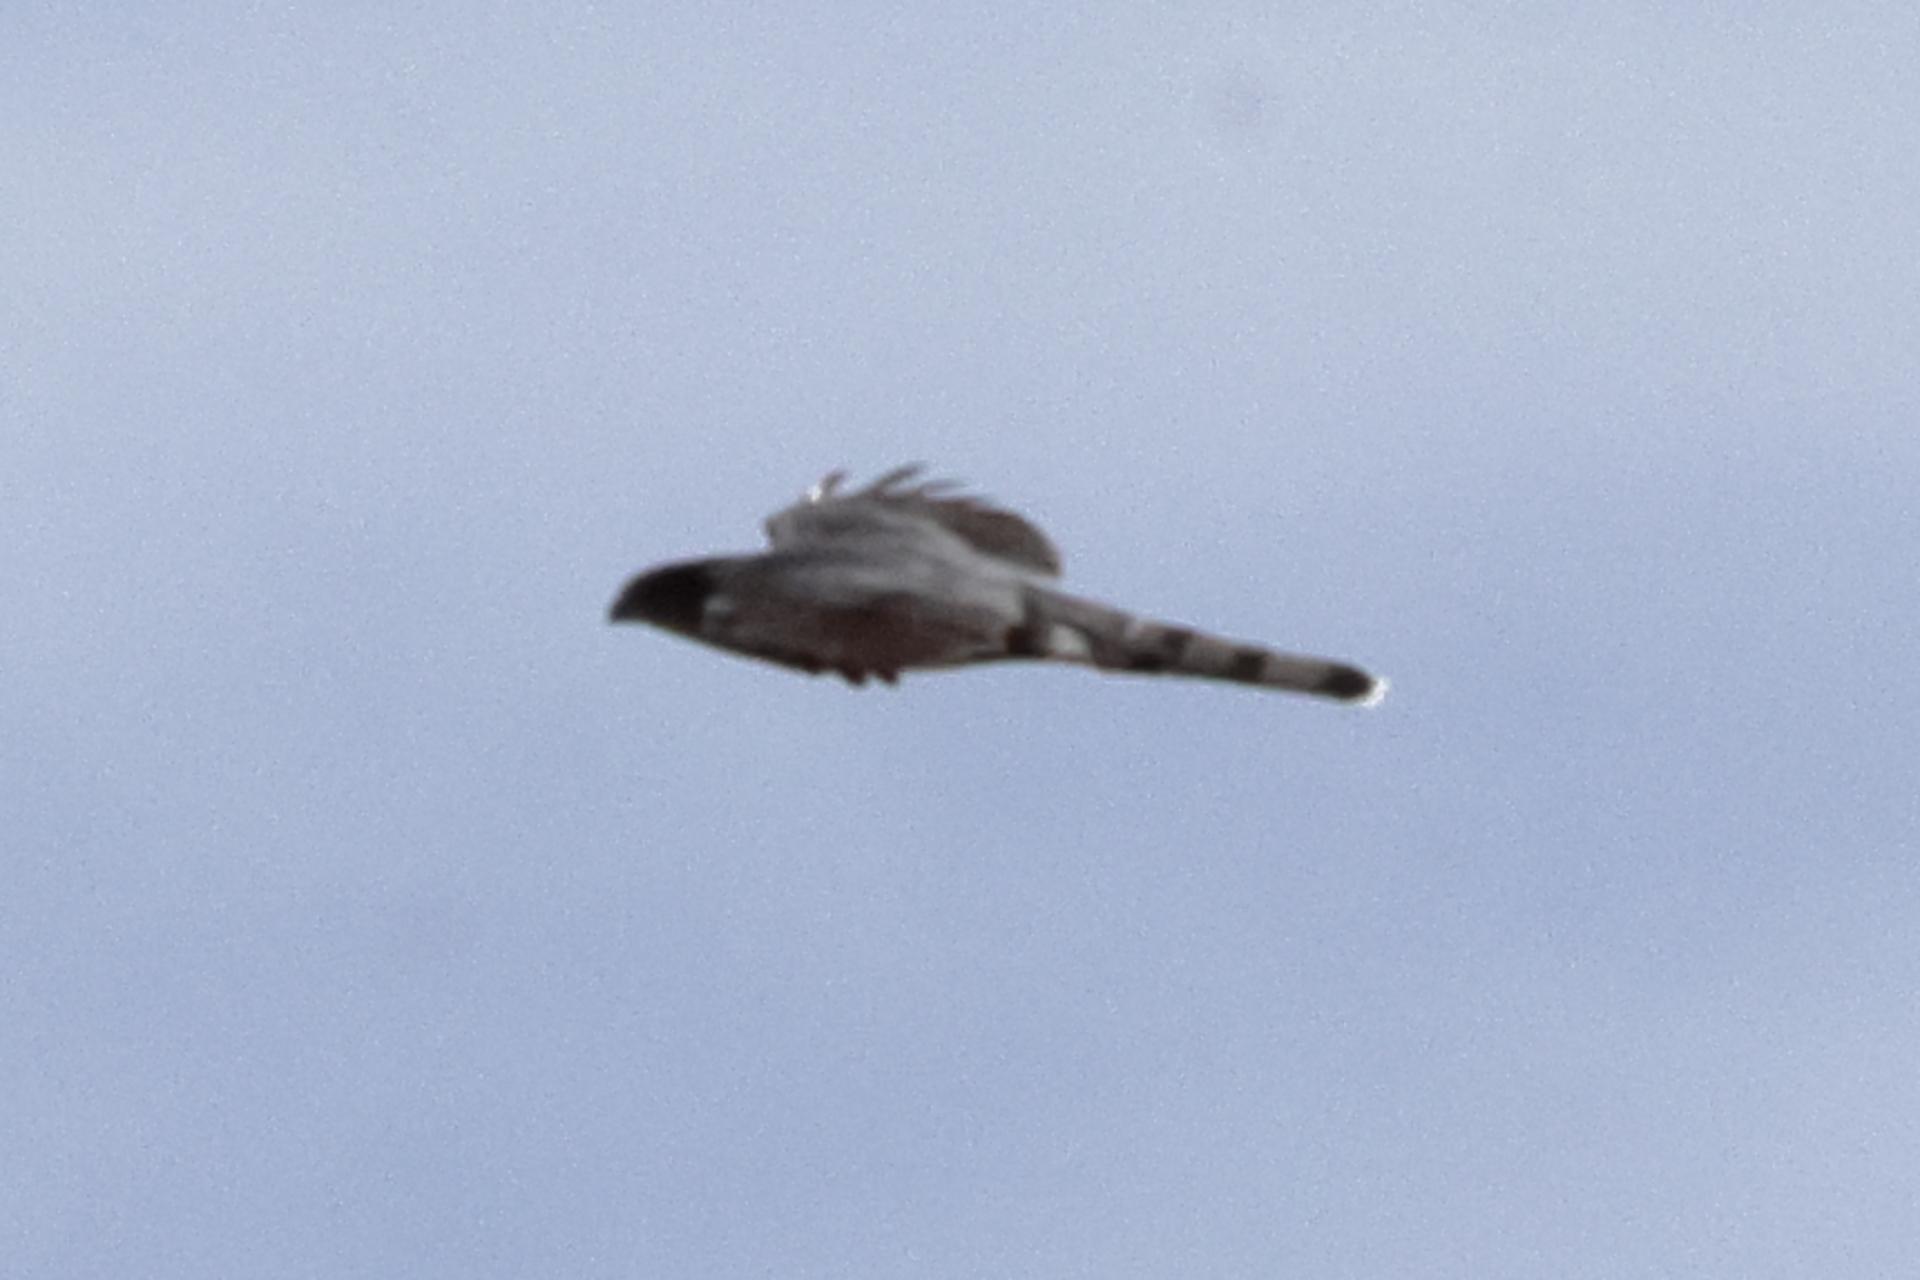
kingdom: Animalia
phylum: Chordata
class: Aves
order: Accipitriformes
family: Accipitridae
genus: Accipiter
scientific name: Accipiter cooperii
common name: Cooper's hawk
